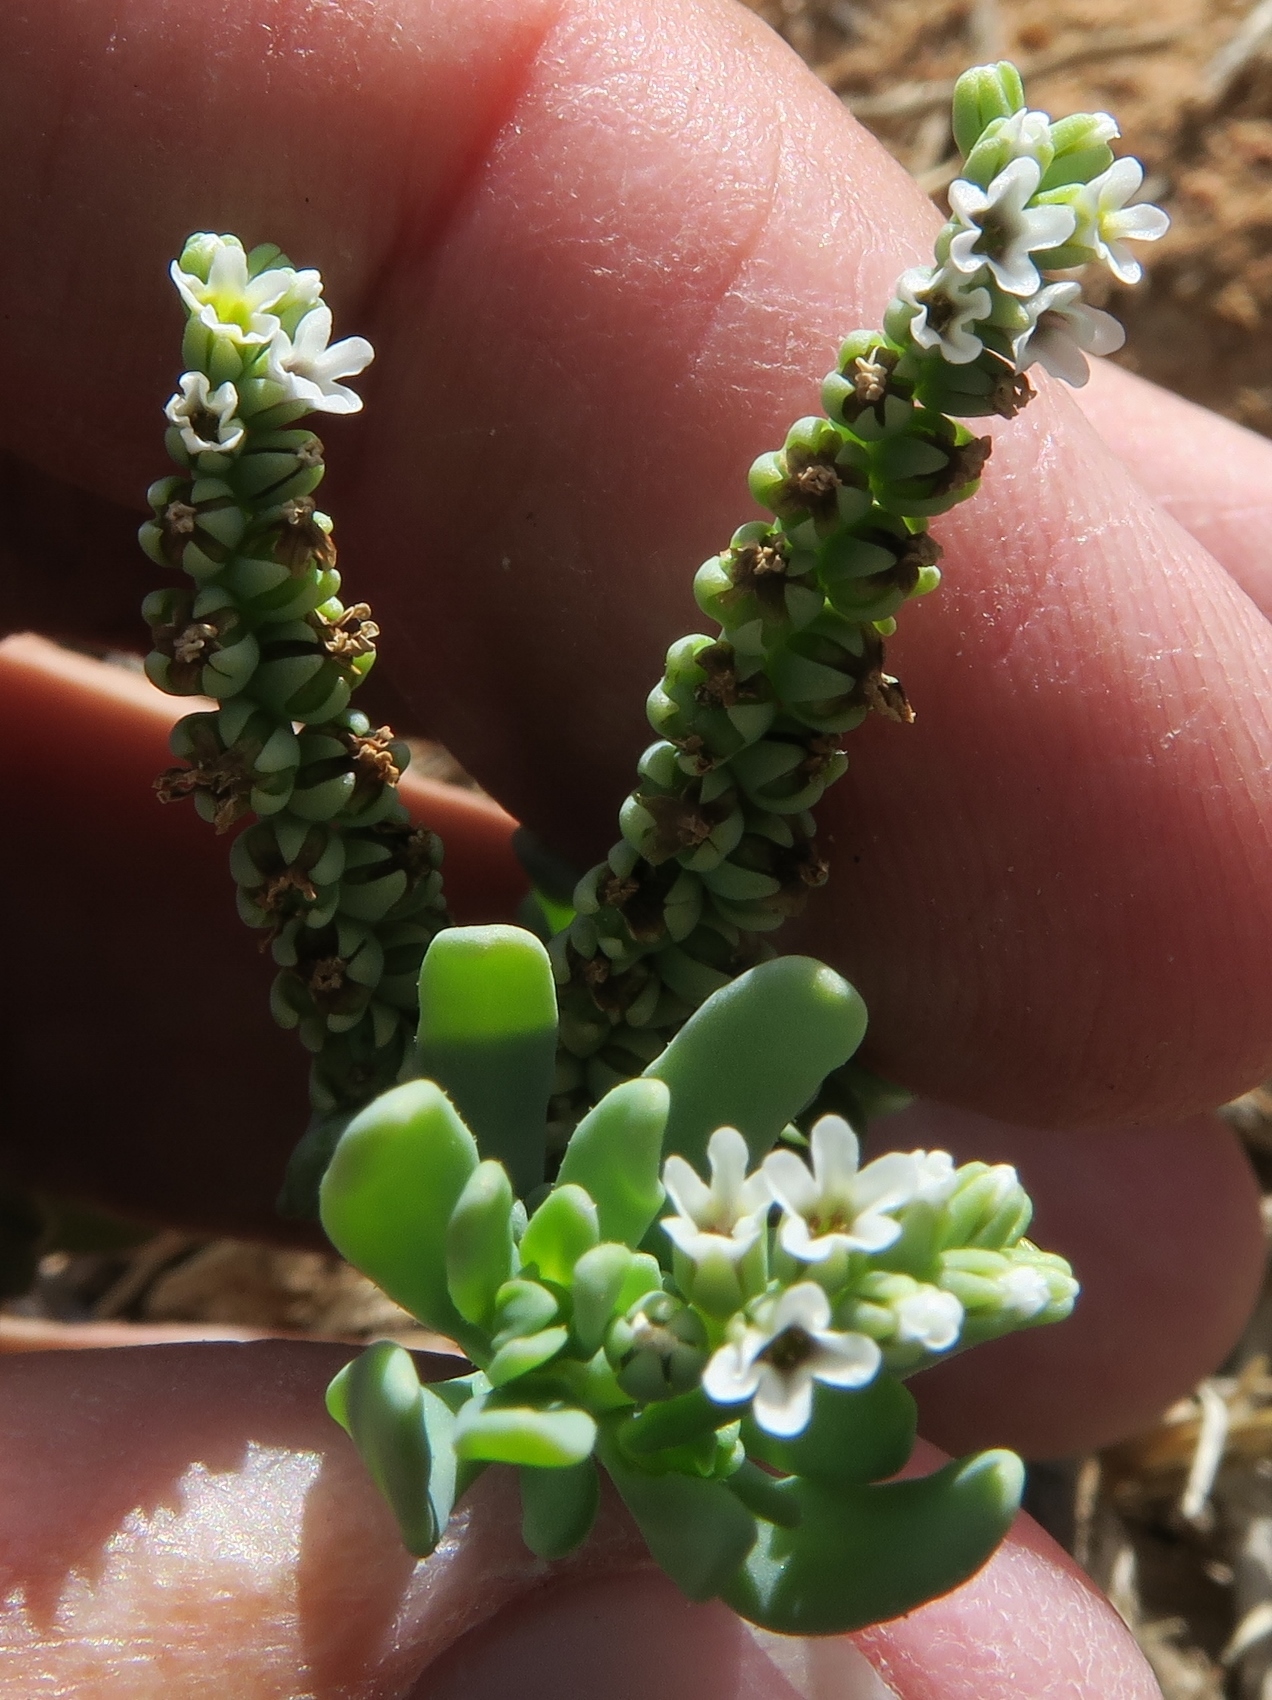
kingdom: Plantae
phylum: Tracheophyta
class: Magnoliopsida
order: Boraginales
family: Heliotropiaceae
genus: Heliotropium
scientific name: Heliotropium curassavicum
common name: Seaside heliotrope
